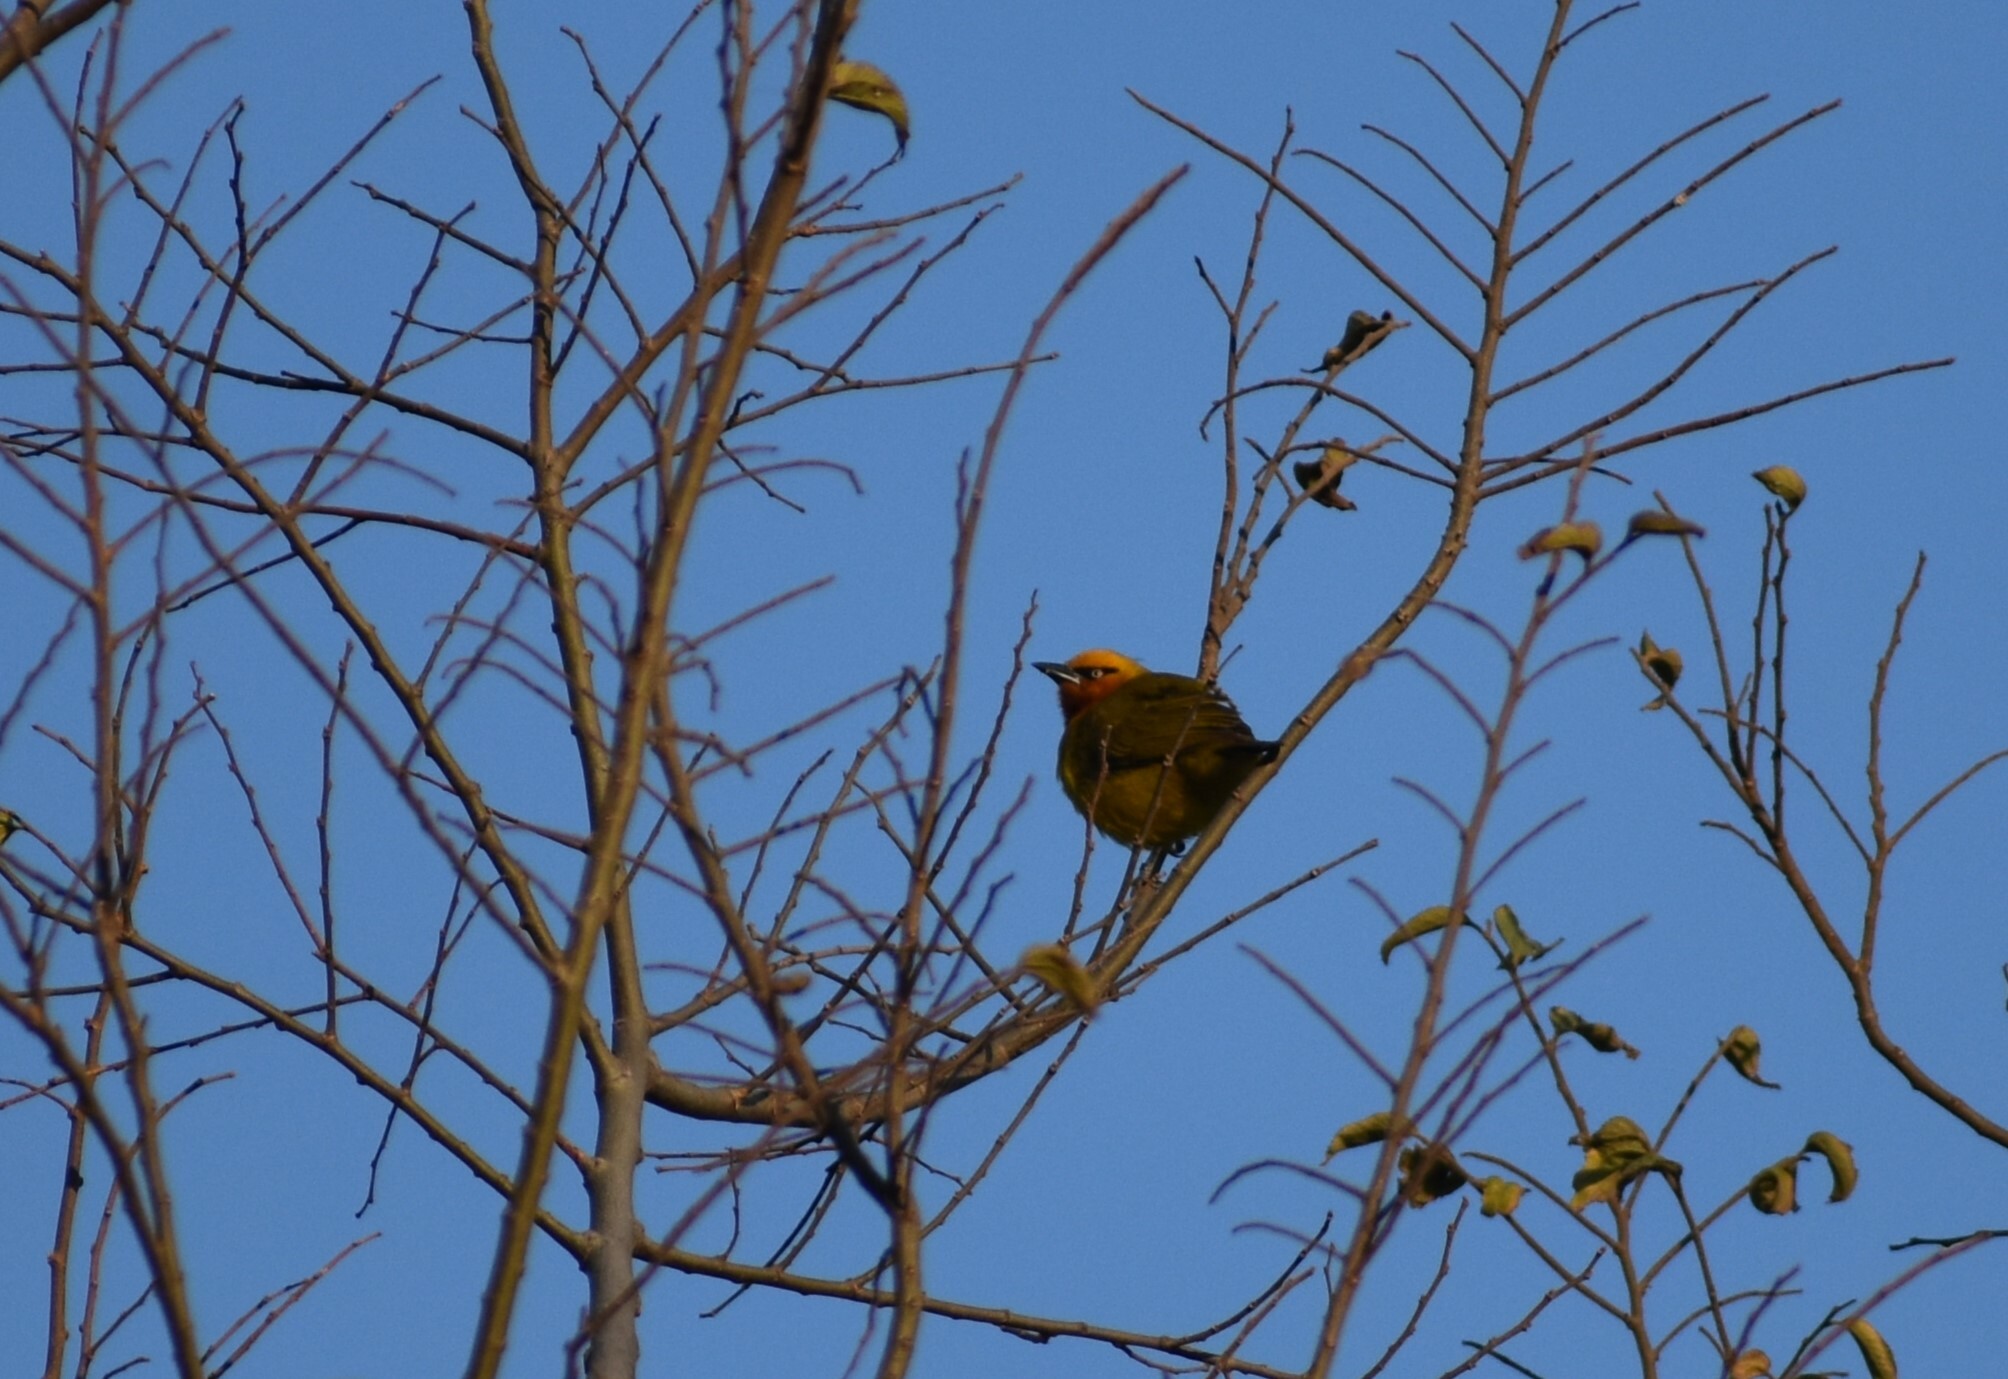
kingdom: Animalia
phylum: Chordata
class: Aves
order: Passeriformes
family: Ploceidae
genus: Ploceus
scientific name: Ploceus ocularis
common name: Spectacled weaver
